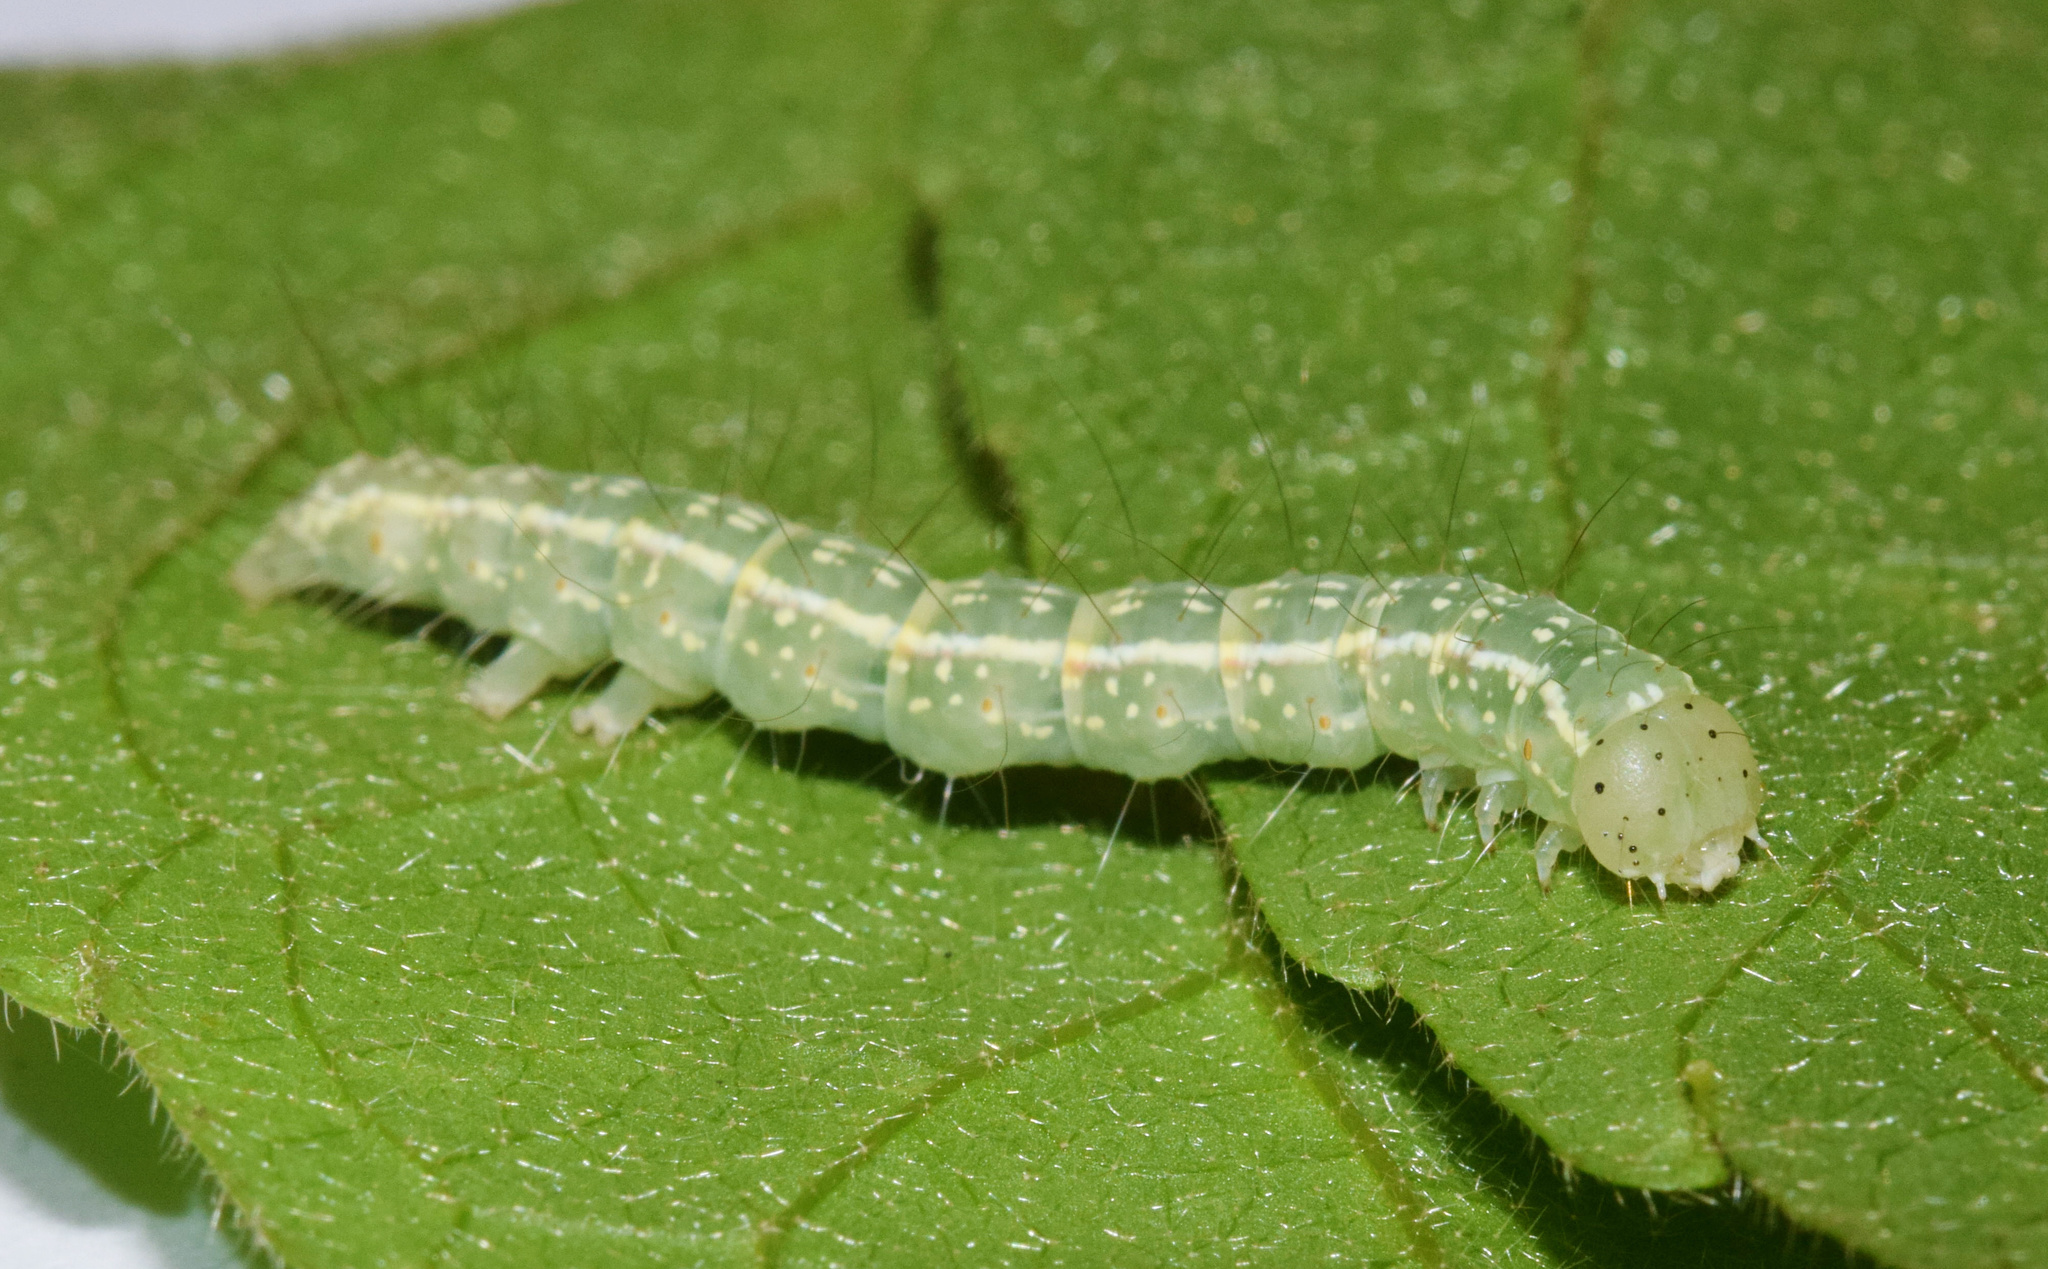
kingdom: Animalia
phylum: Arthropoda
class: Insecta
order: Lepidoptera
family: Noctuidae
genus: Amyna
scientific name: Amyna natalica
